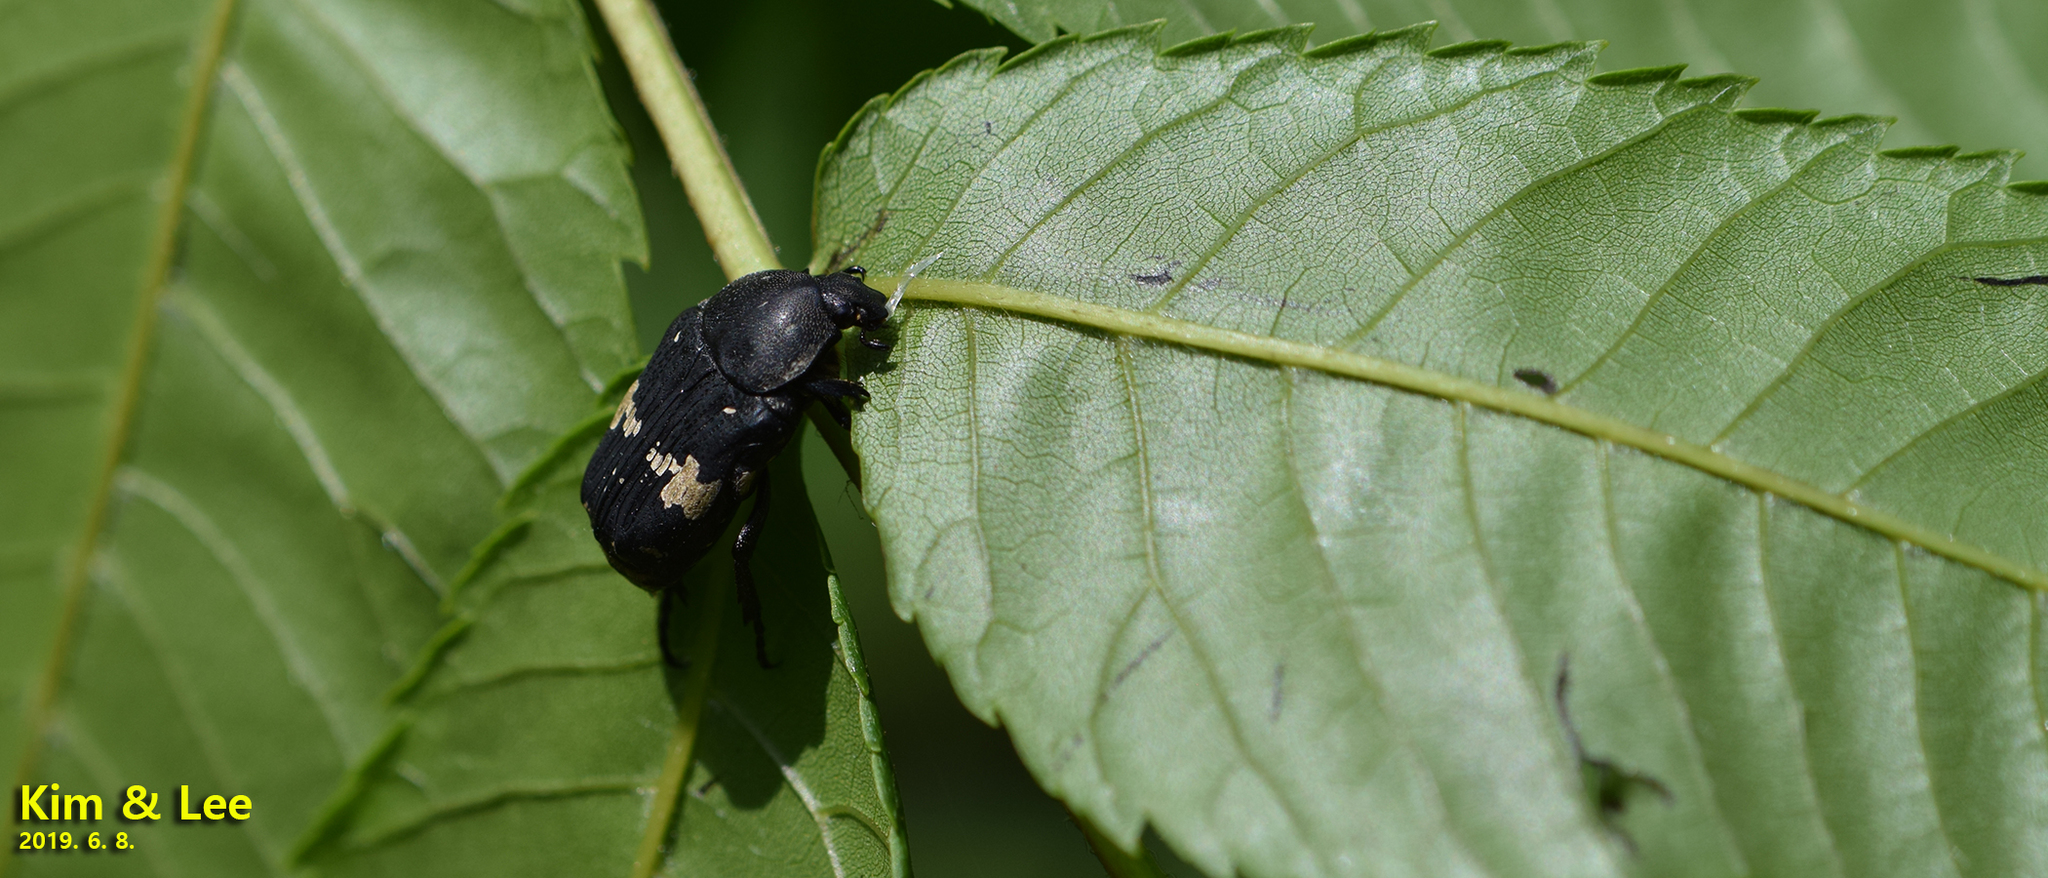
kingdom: Animalia
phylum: Arthropoda
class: Insecta
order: Coleoptera
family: Scarabaeidae
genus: Glycyphana
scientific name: Glycyphana fulvistemma
